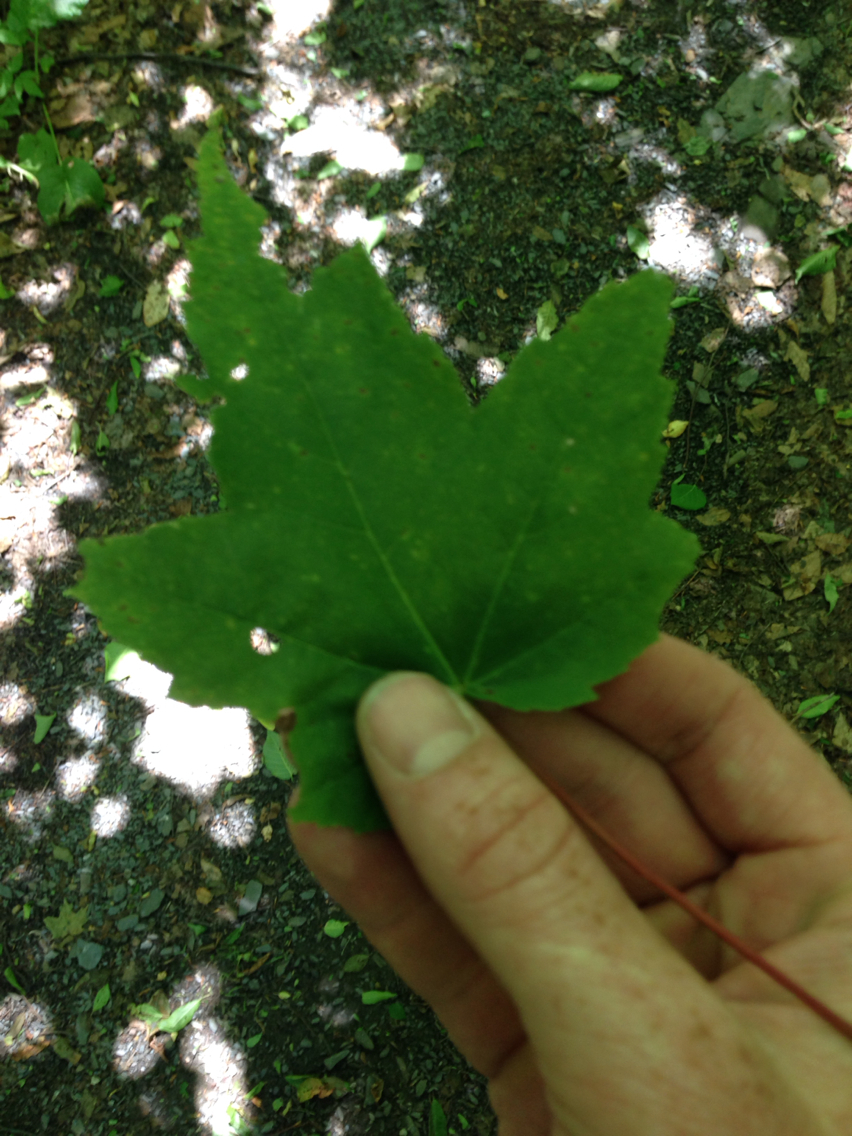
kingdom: Plantae
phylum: Tracheophyta
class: Magnoliopsida
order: Sapindales
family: Sapindaceae
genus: Acer
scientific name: Acer rubrum
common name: Red maple
